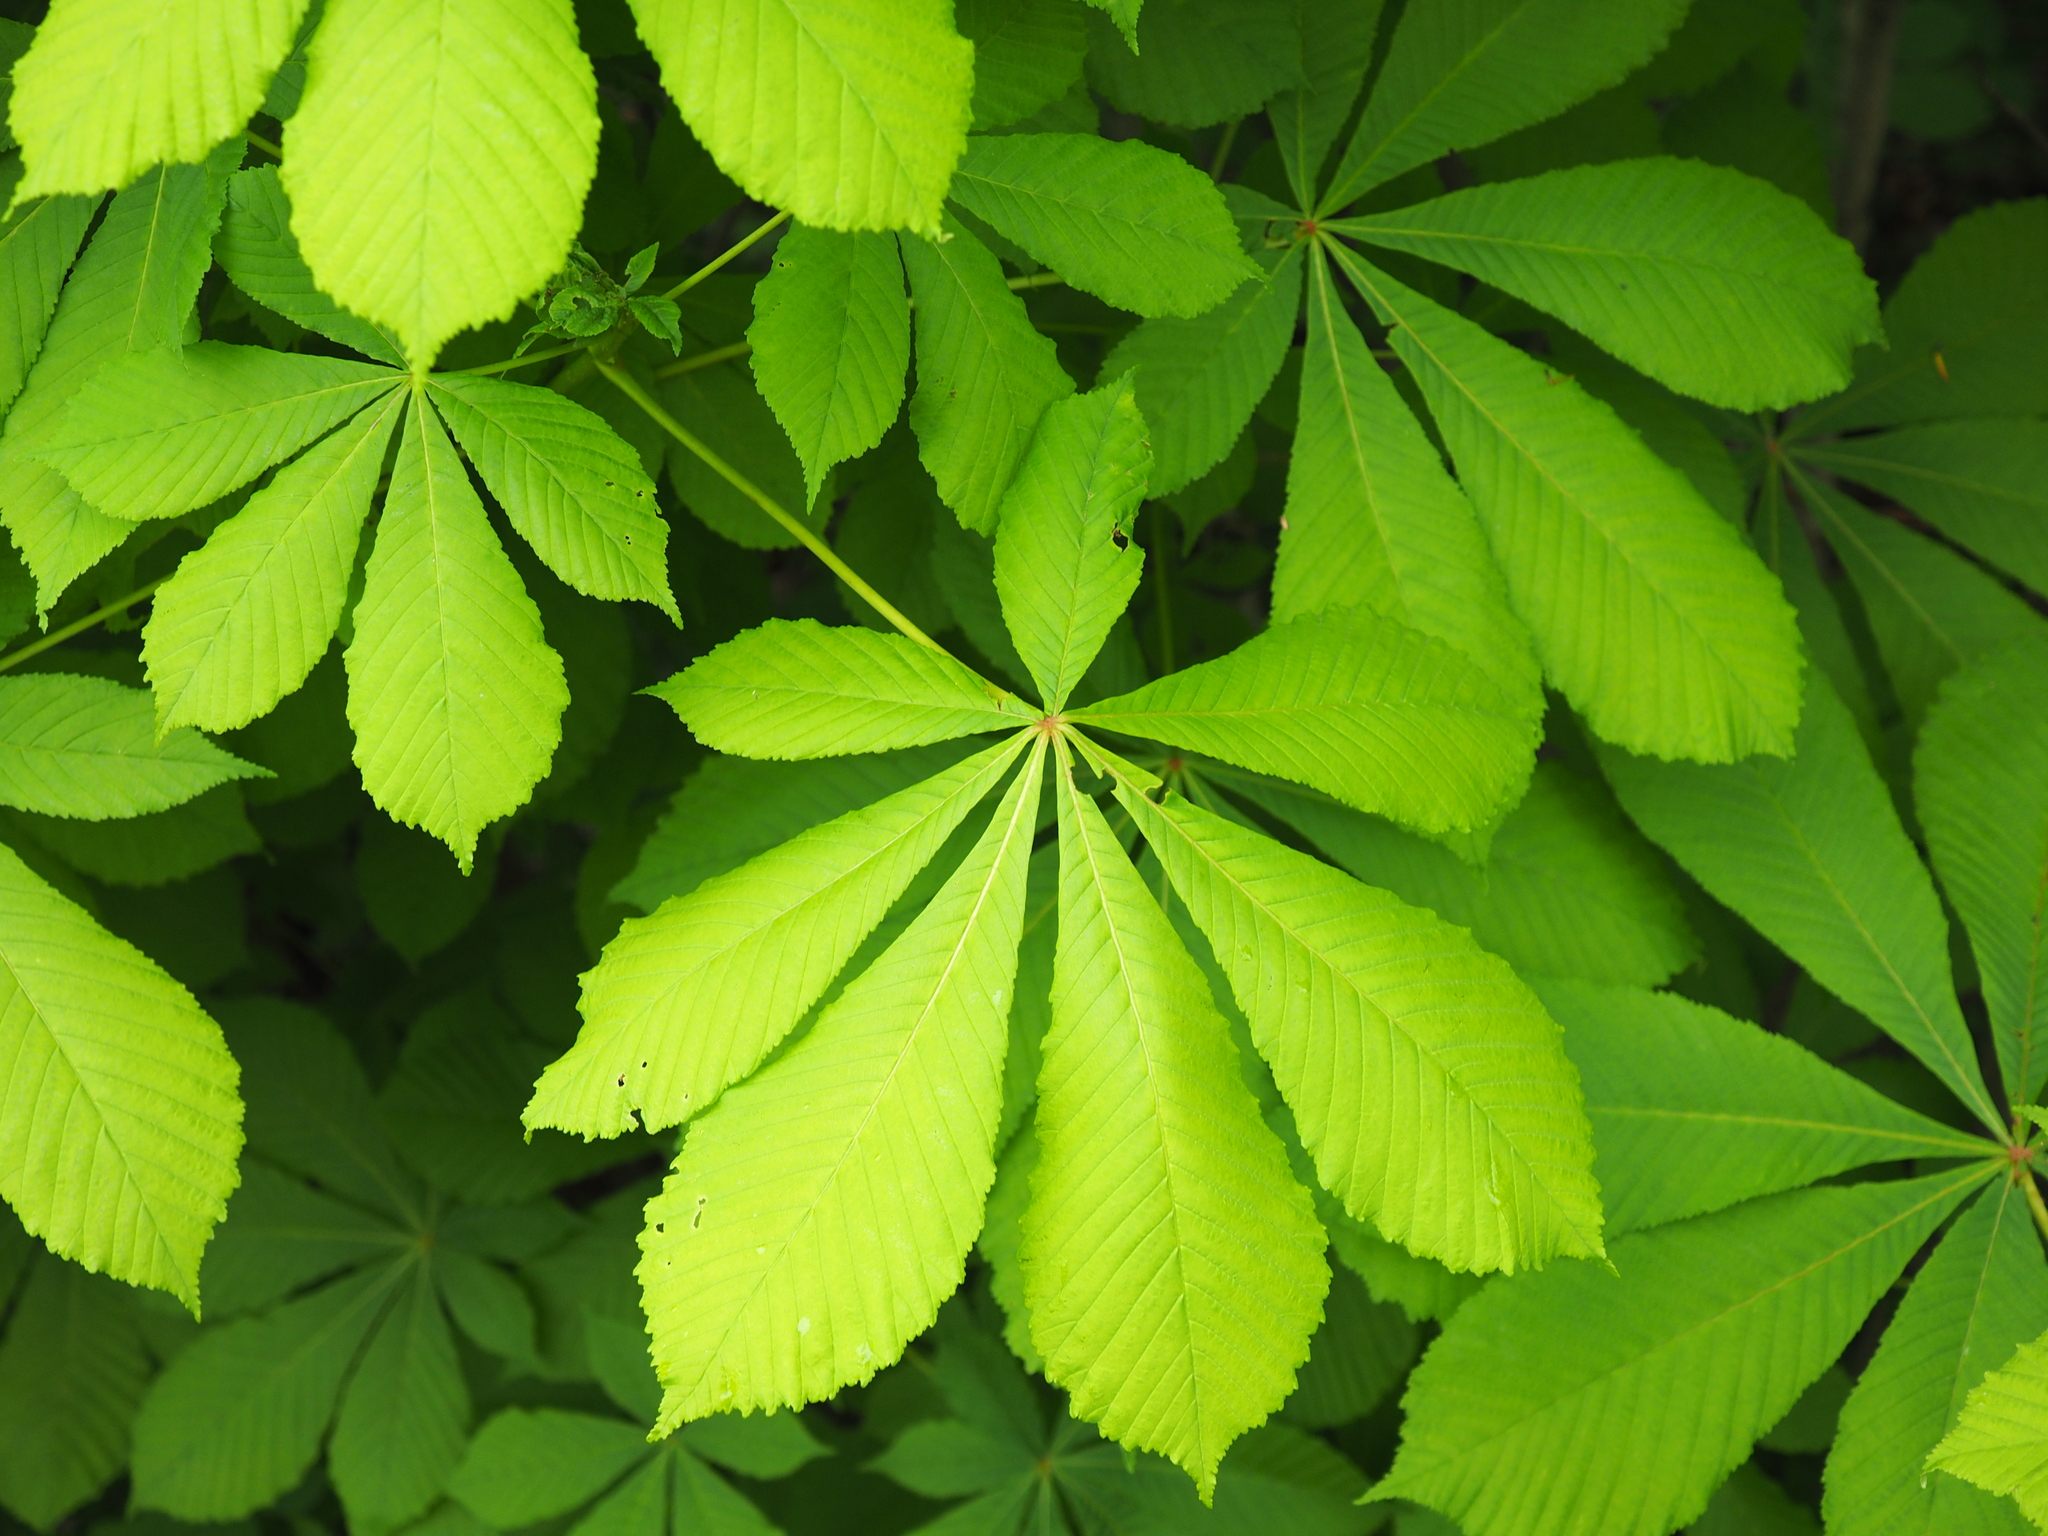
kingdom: Plantae
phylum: Tracheophyta
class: Magnoliopsida
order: Sapindales
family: Sapindaceae
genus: Aesculus
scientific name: Aesculus hippocastanum
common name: Horse-chestnut
